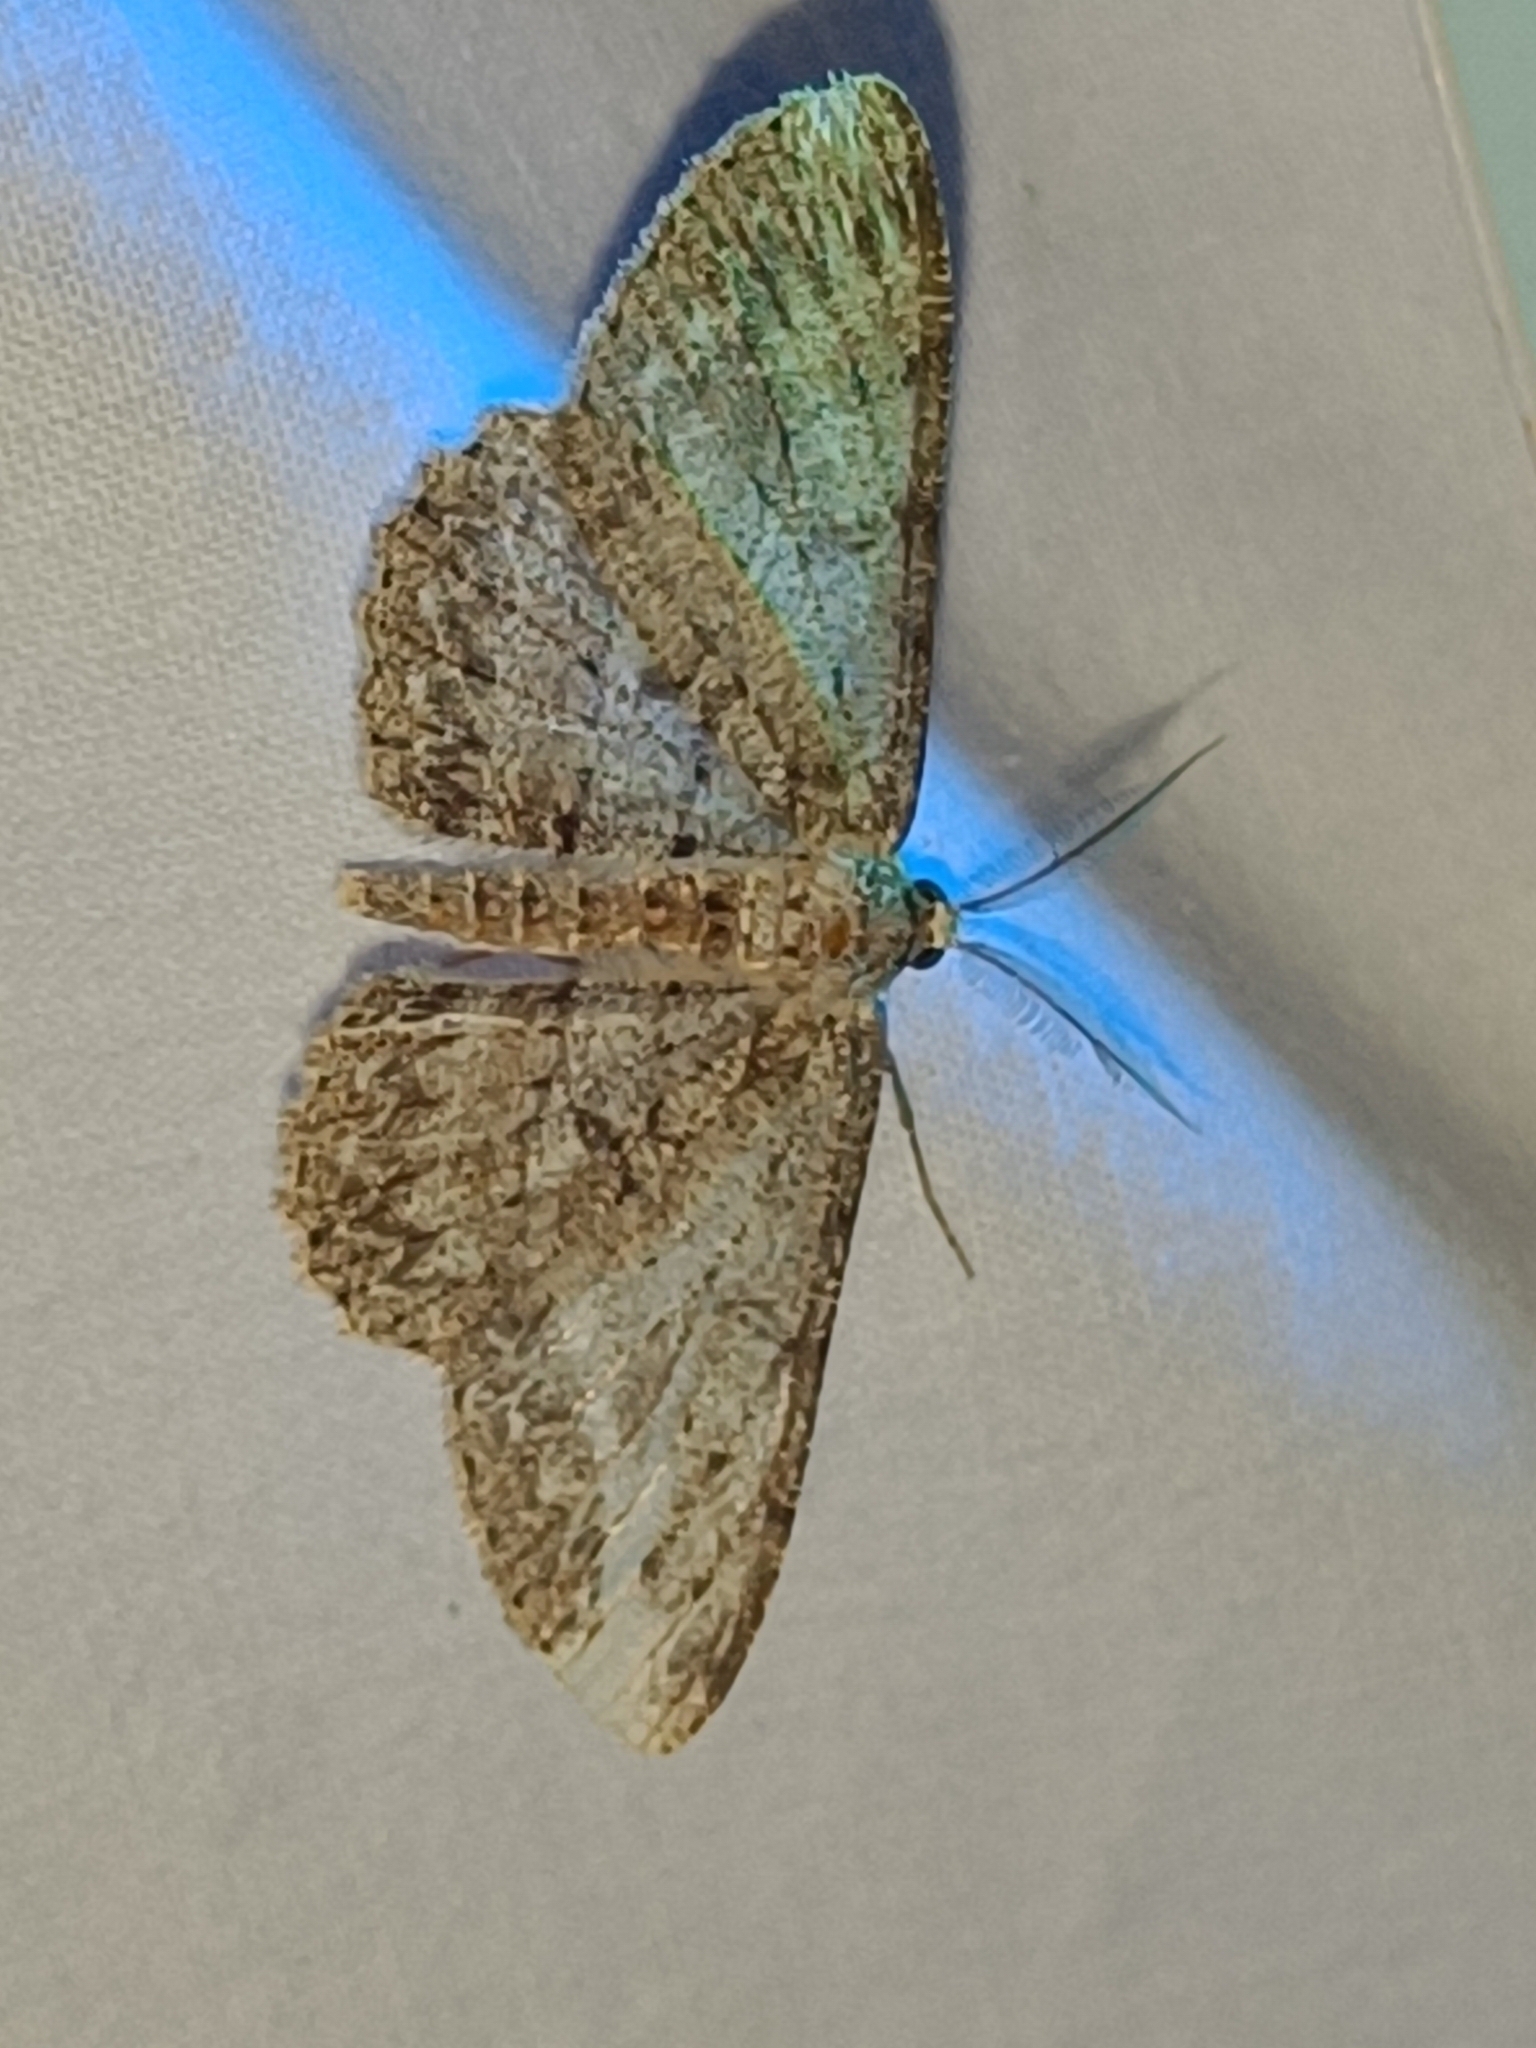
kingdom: Animalia
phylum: Arthropoda
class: Insecta
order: Lepidoptera
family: Geometridae
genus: Hypomecis
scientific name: Hypomecis punctinalis
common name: Pale oak beauty
